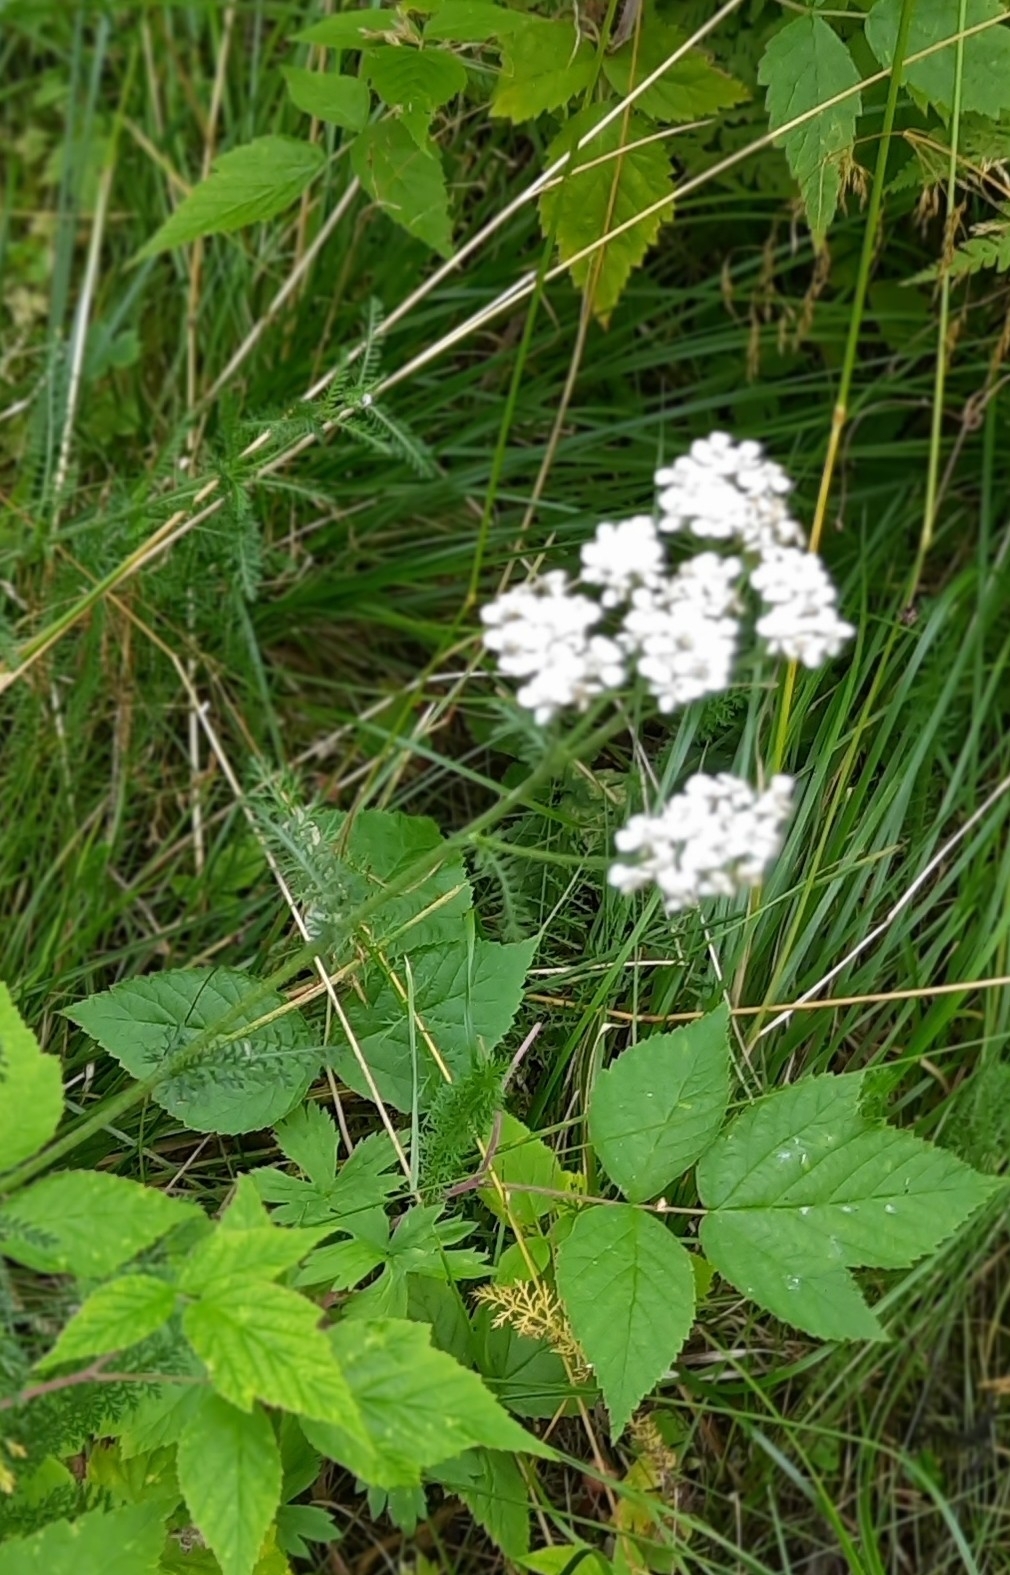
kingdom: Plantae
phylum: Tracheophyta
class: Magnoliopsida
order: Asterales
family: Asteraceae
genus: Achillea
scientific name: Achillea millefolium
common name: Yarrow
